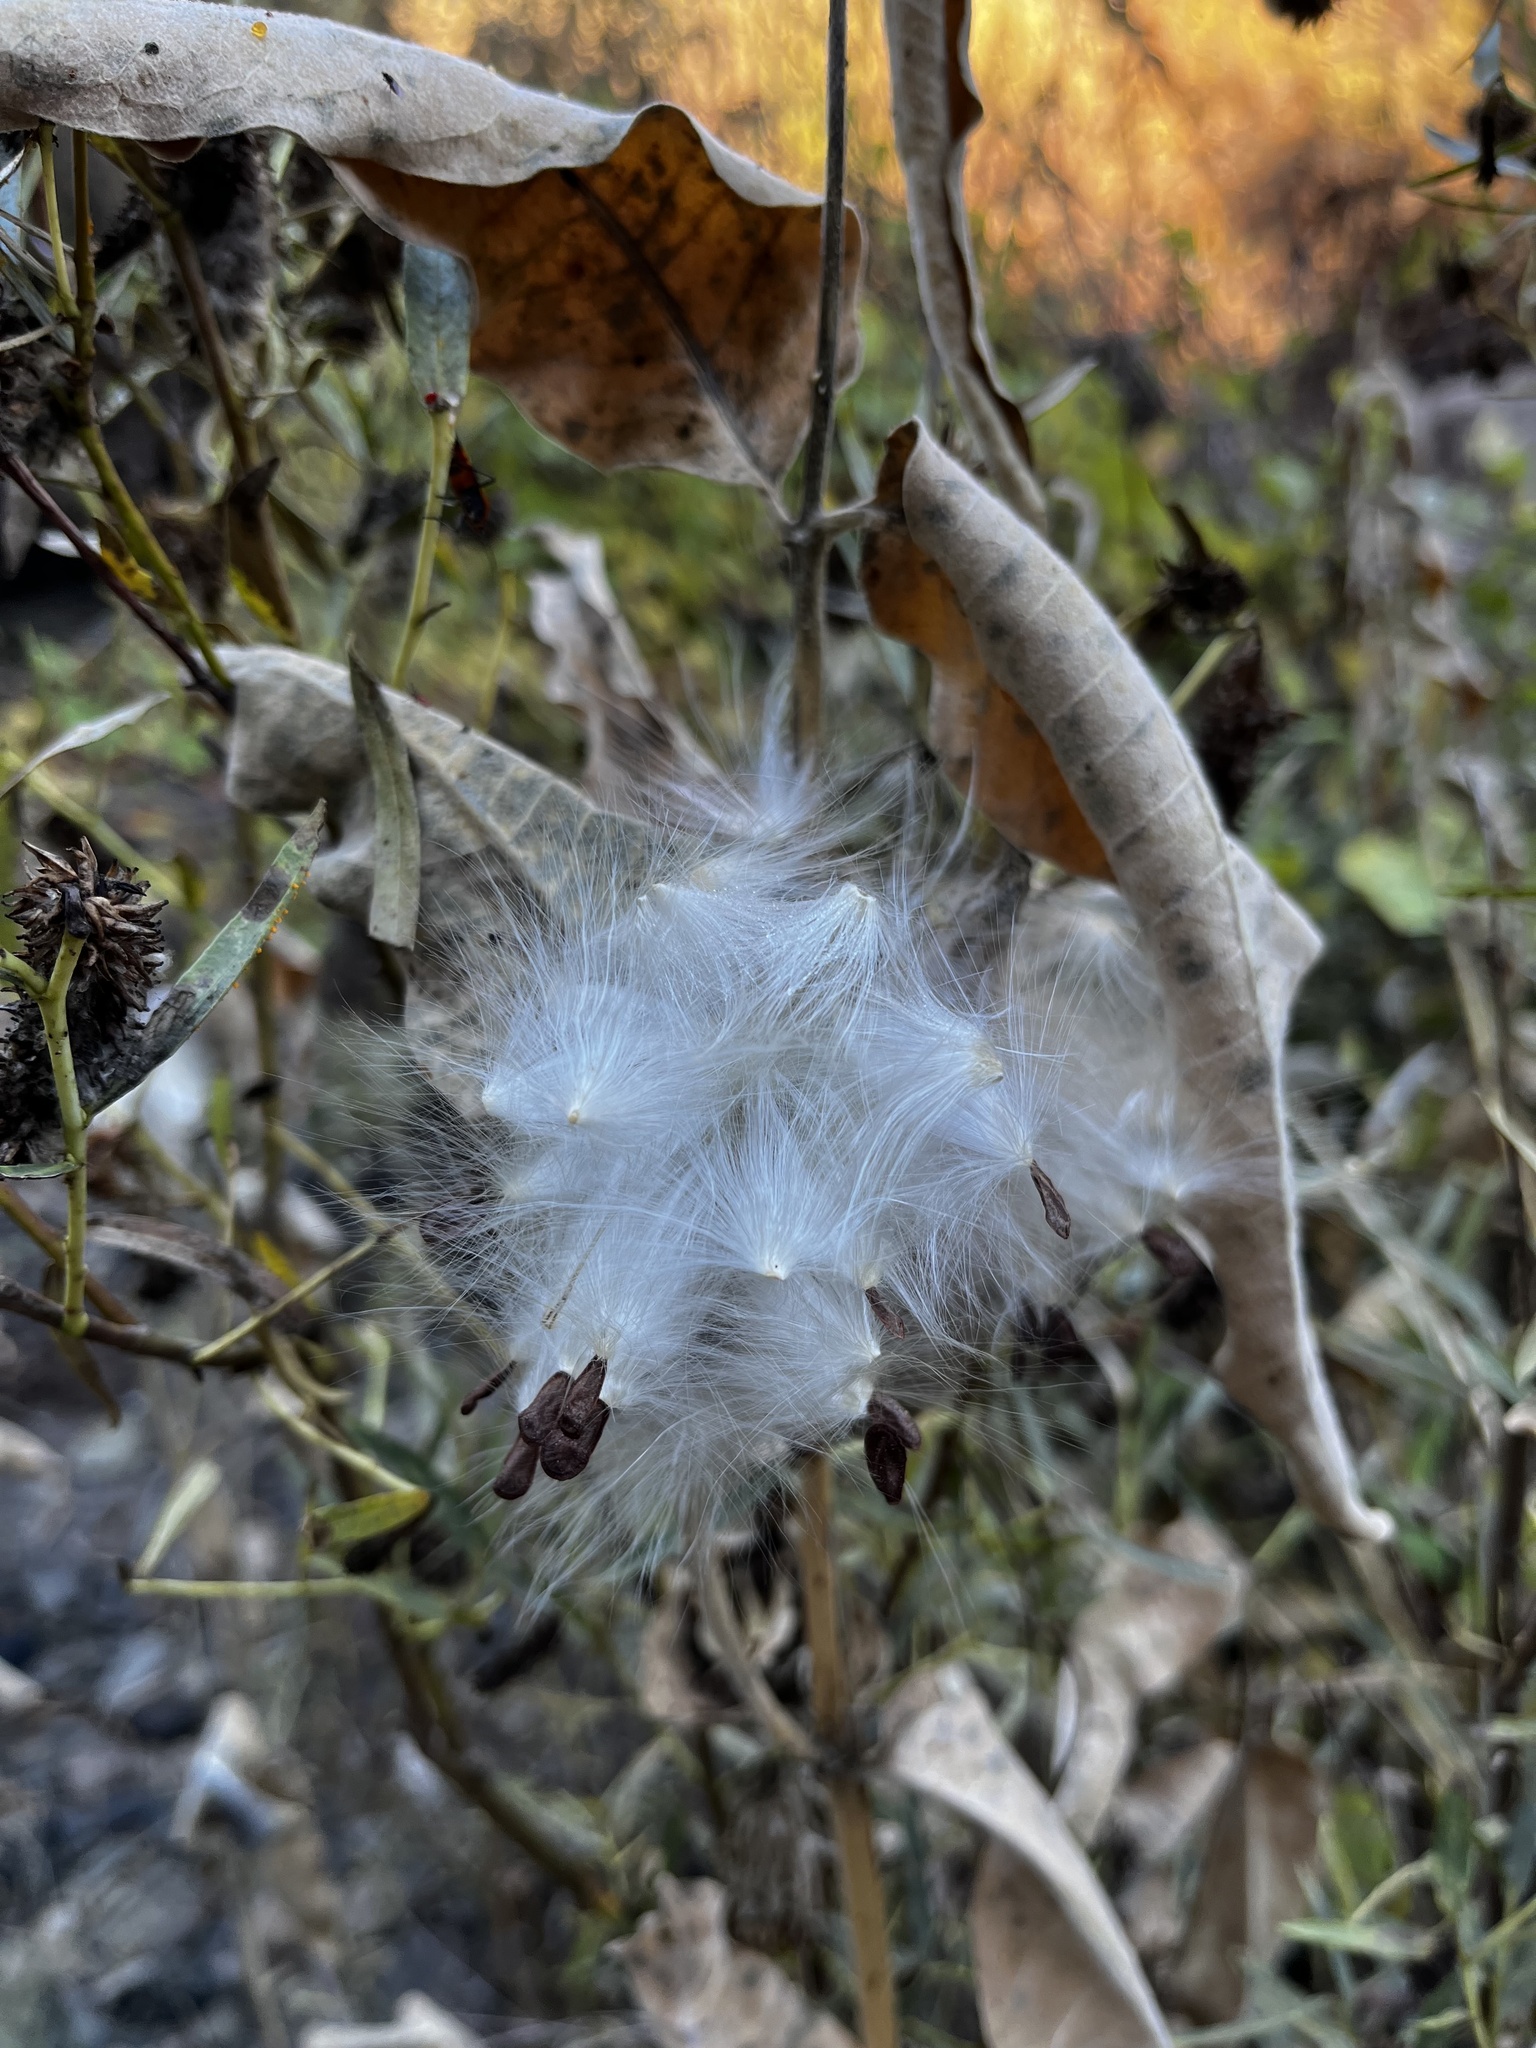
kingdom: Plantae
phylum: Tracheophyta
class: Magnoliopsida
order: Gentianales
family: Apocynaceae
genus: Asclepias
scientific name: Asclepias speciosa
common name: Showy milkweed
